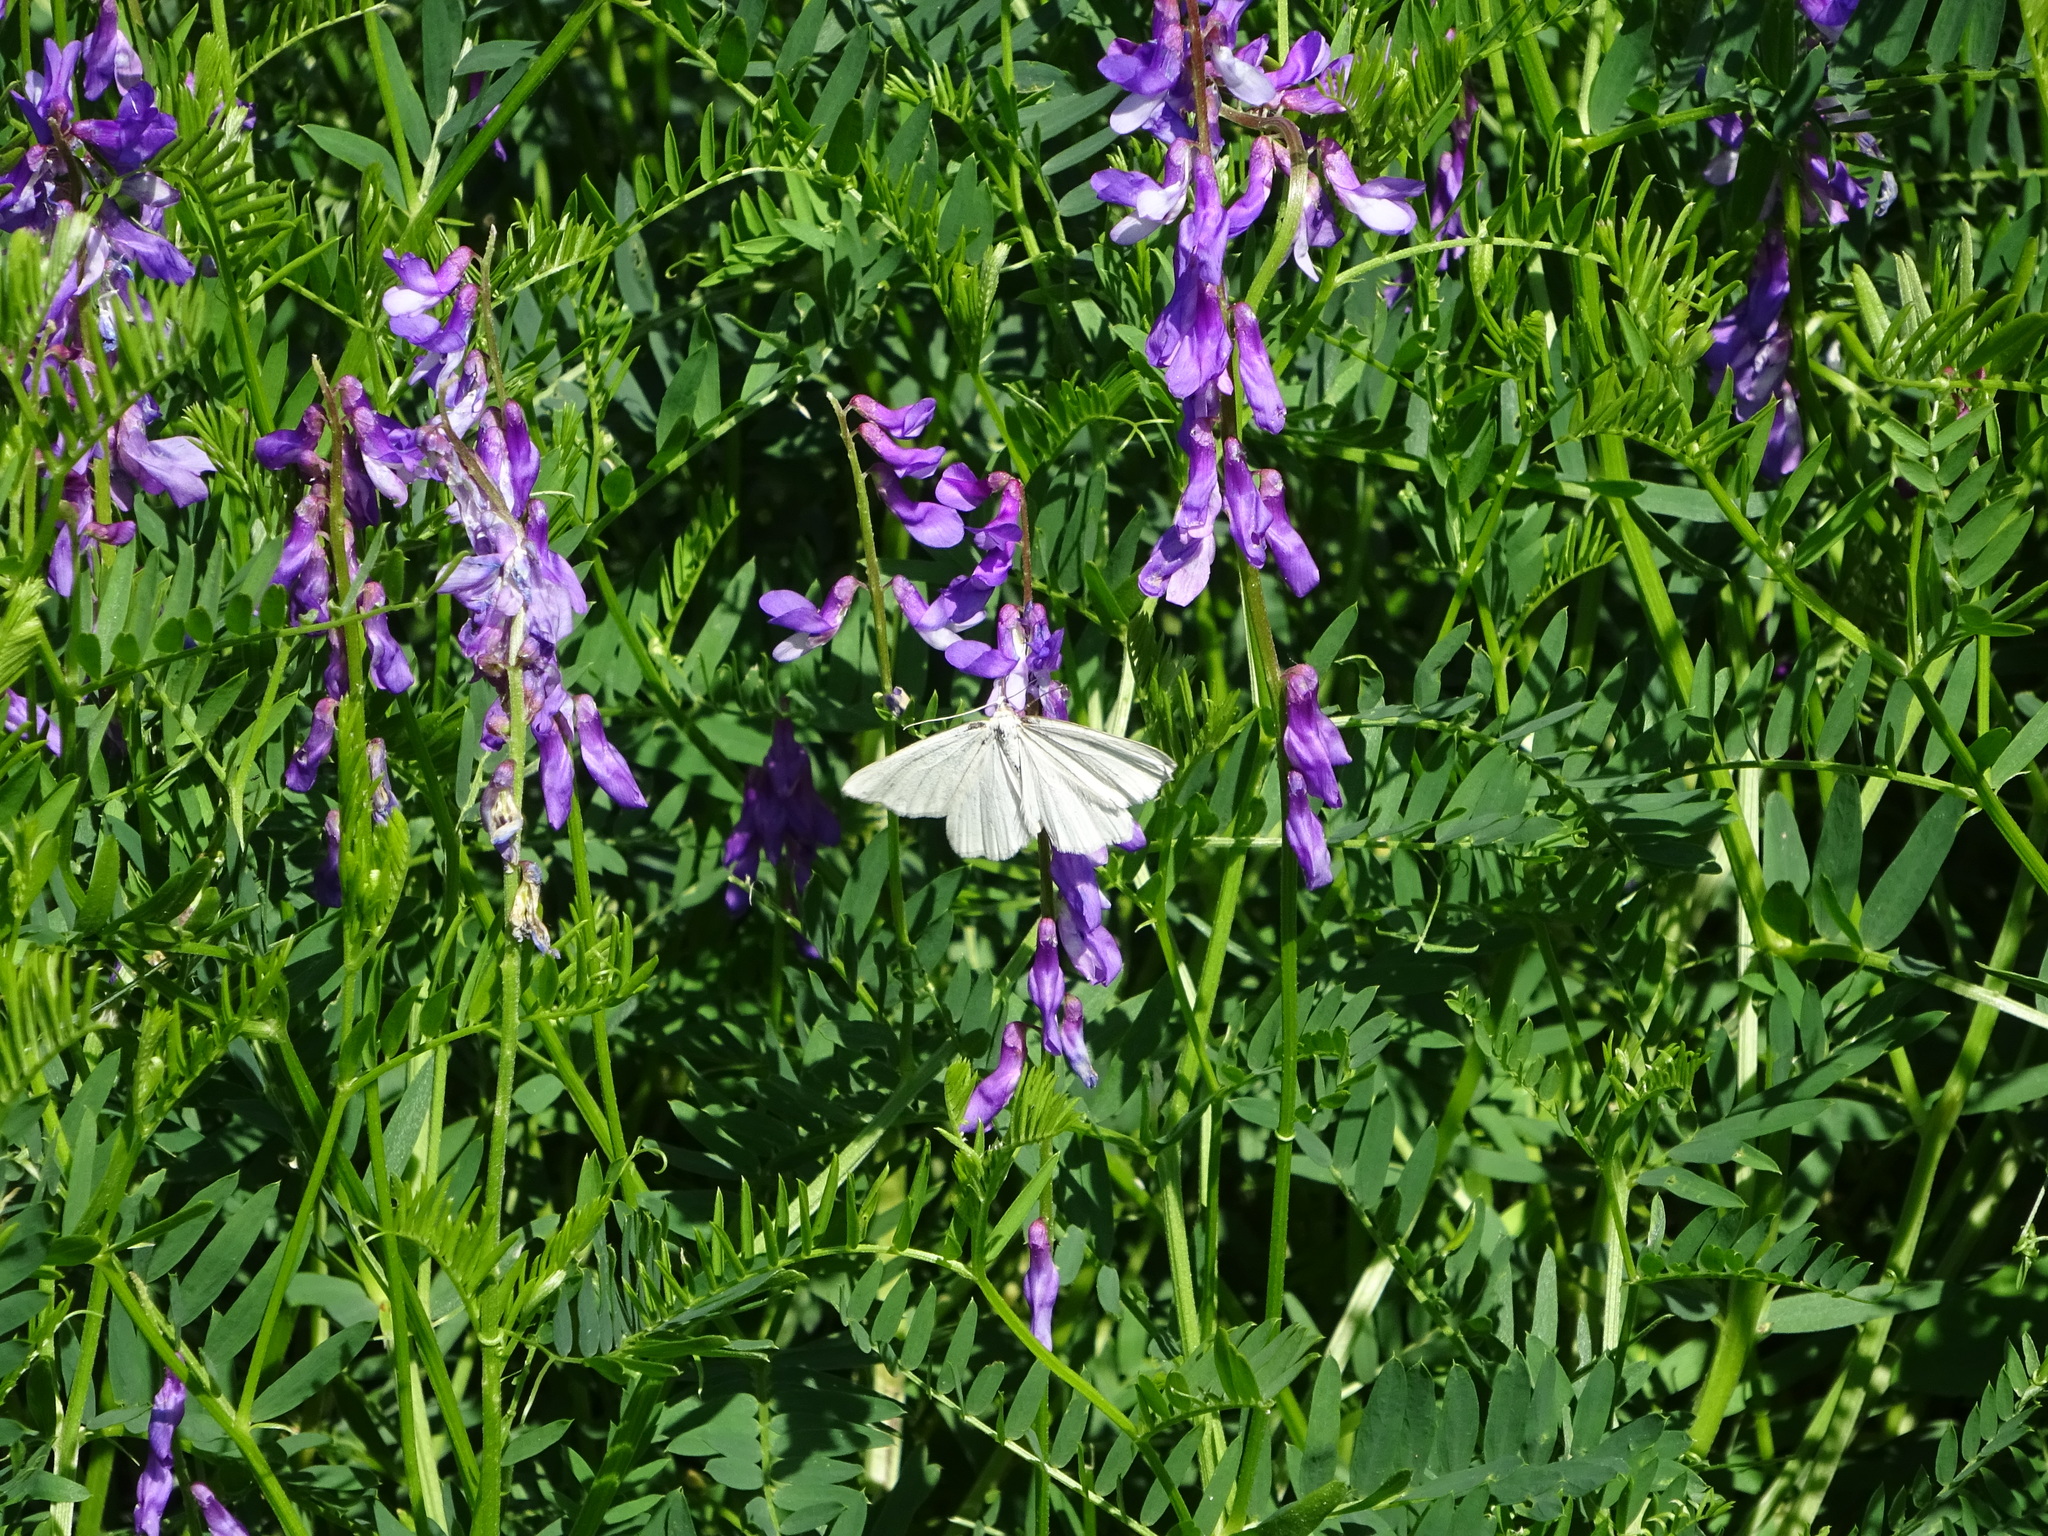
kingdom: Animalia
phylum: Arthropoda
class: Insecta
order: Lepidoptera
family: Geometridae
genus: Siona
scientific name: Siona lineata
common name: Black-veined moth
